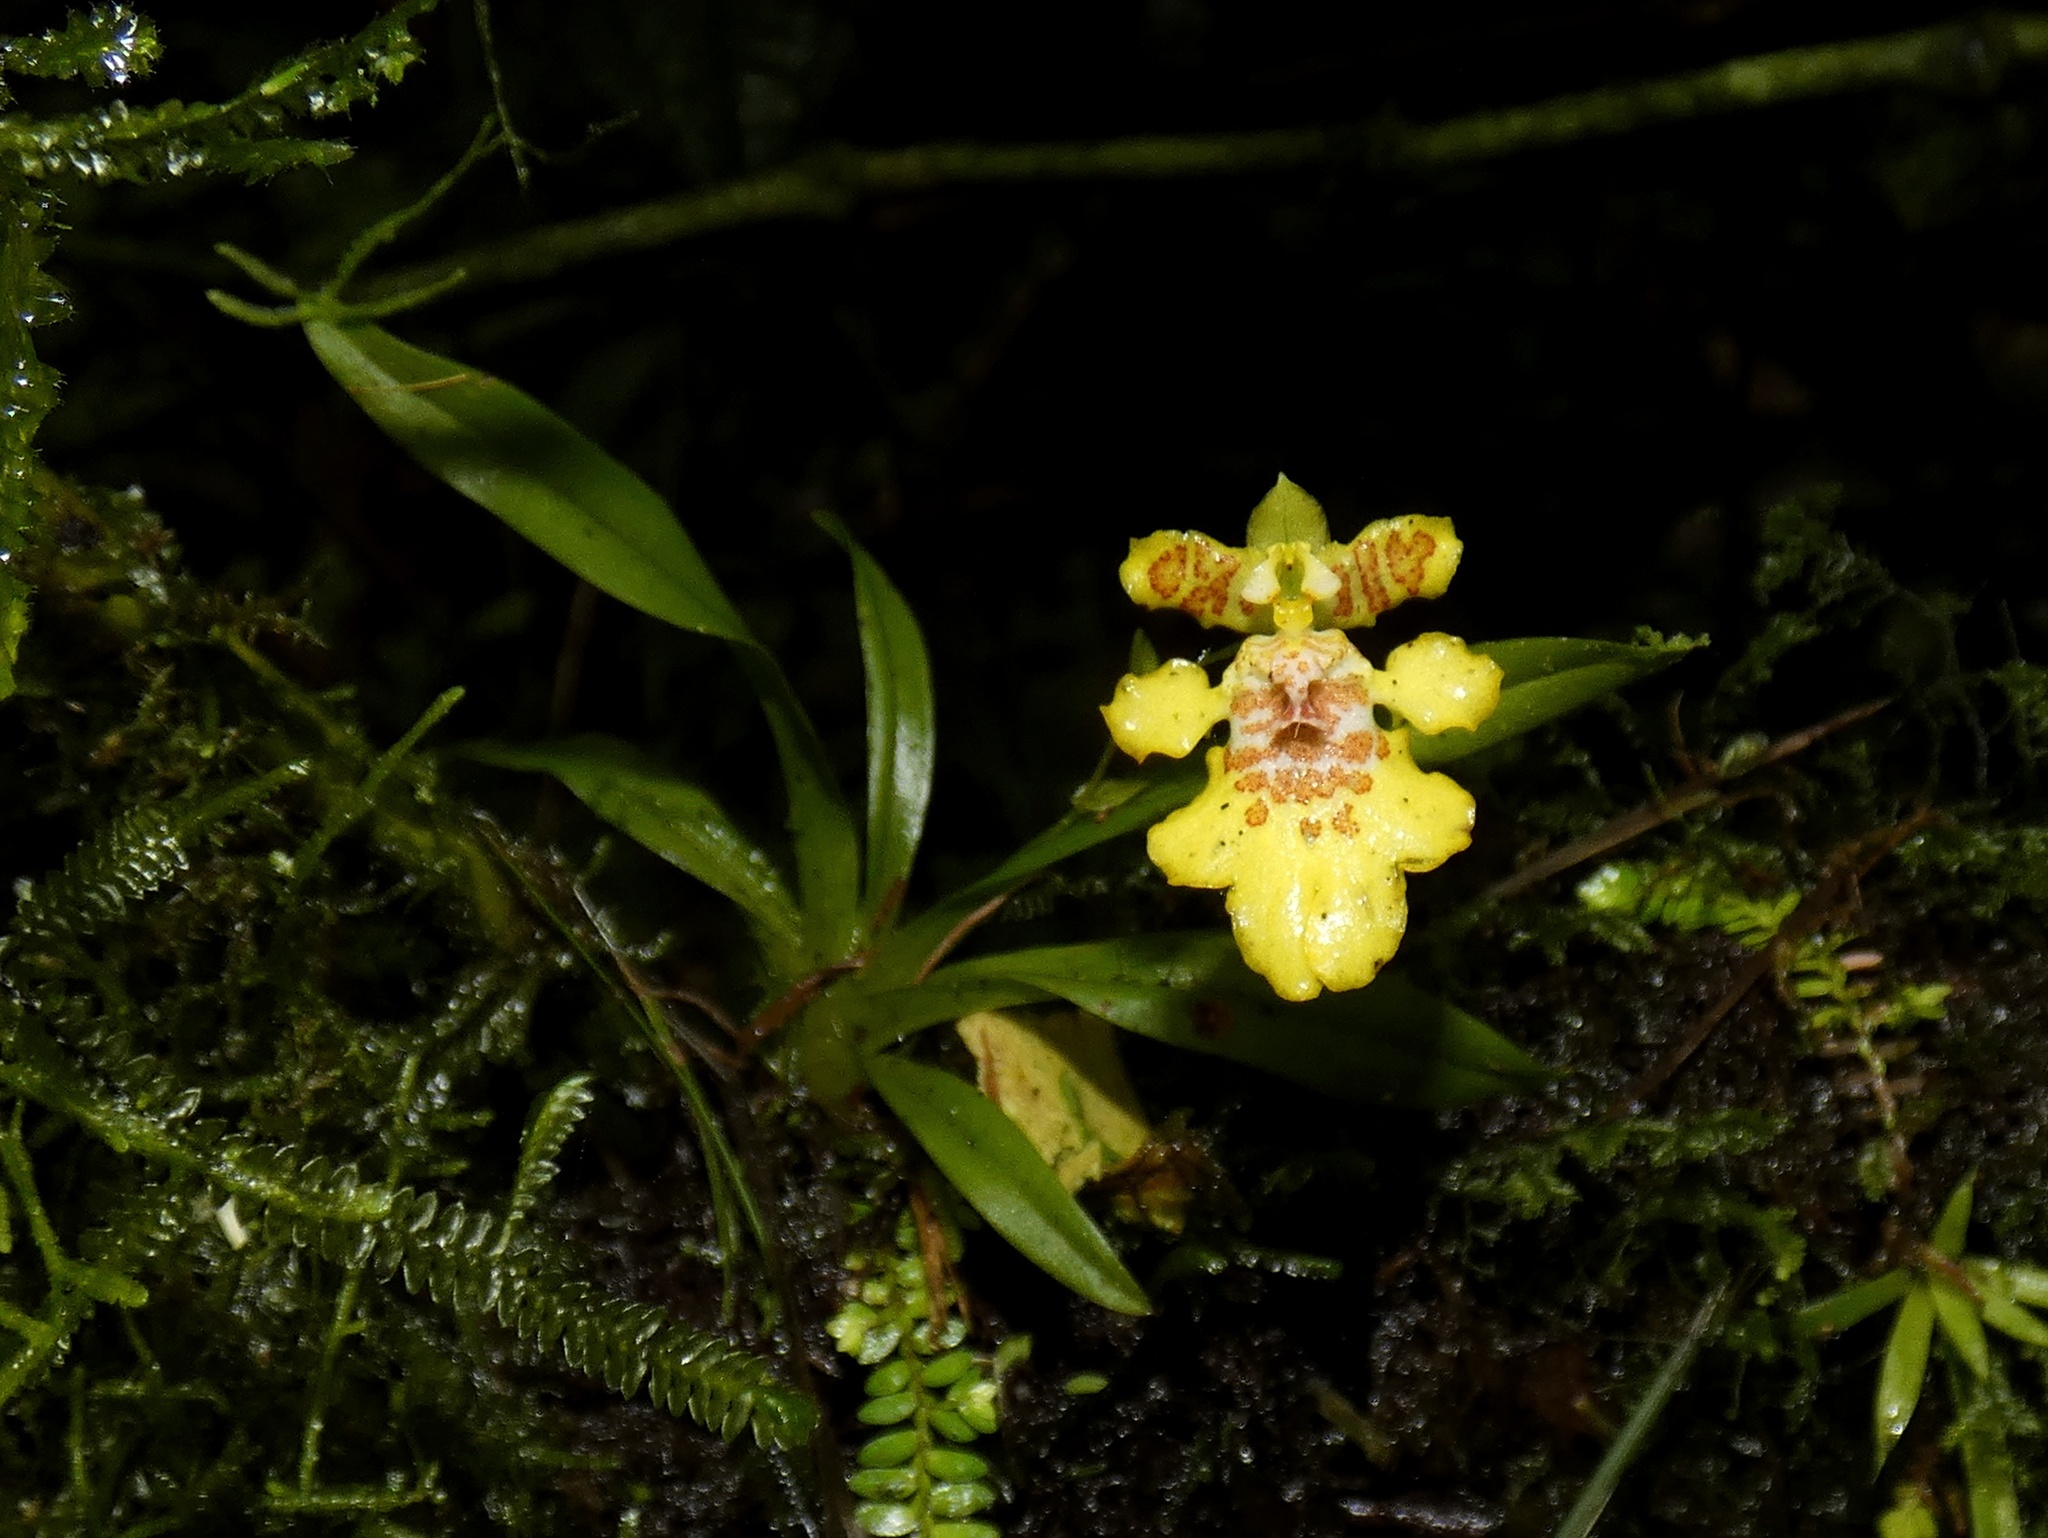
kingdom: Plantae
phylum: Tracheophyta
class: Liliopsida
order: Asparagales
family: Orchidaceae
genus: Erycina
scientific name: Erycina crista-galli
